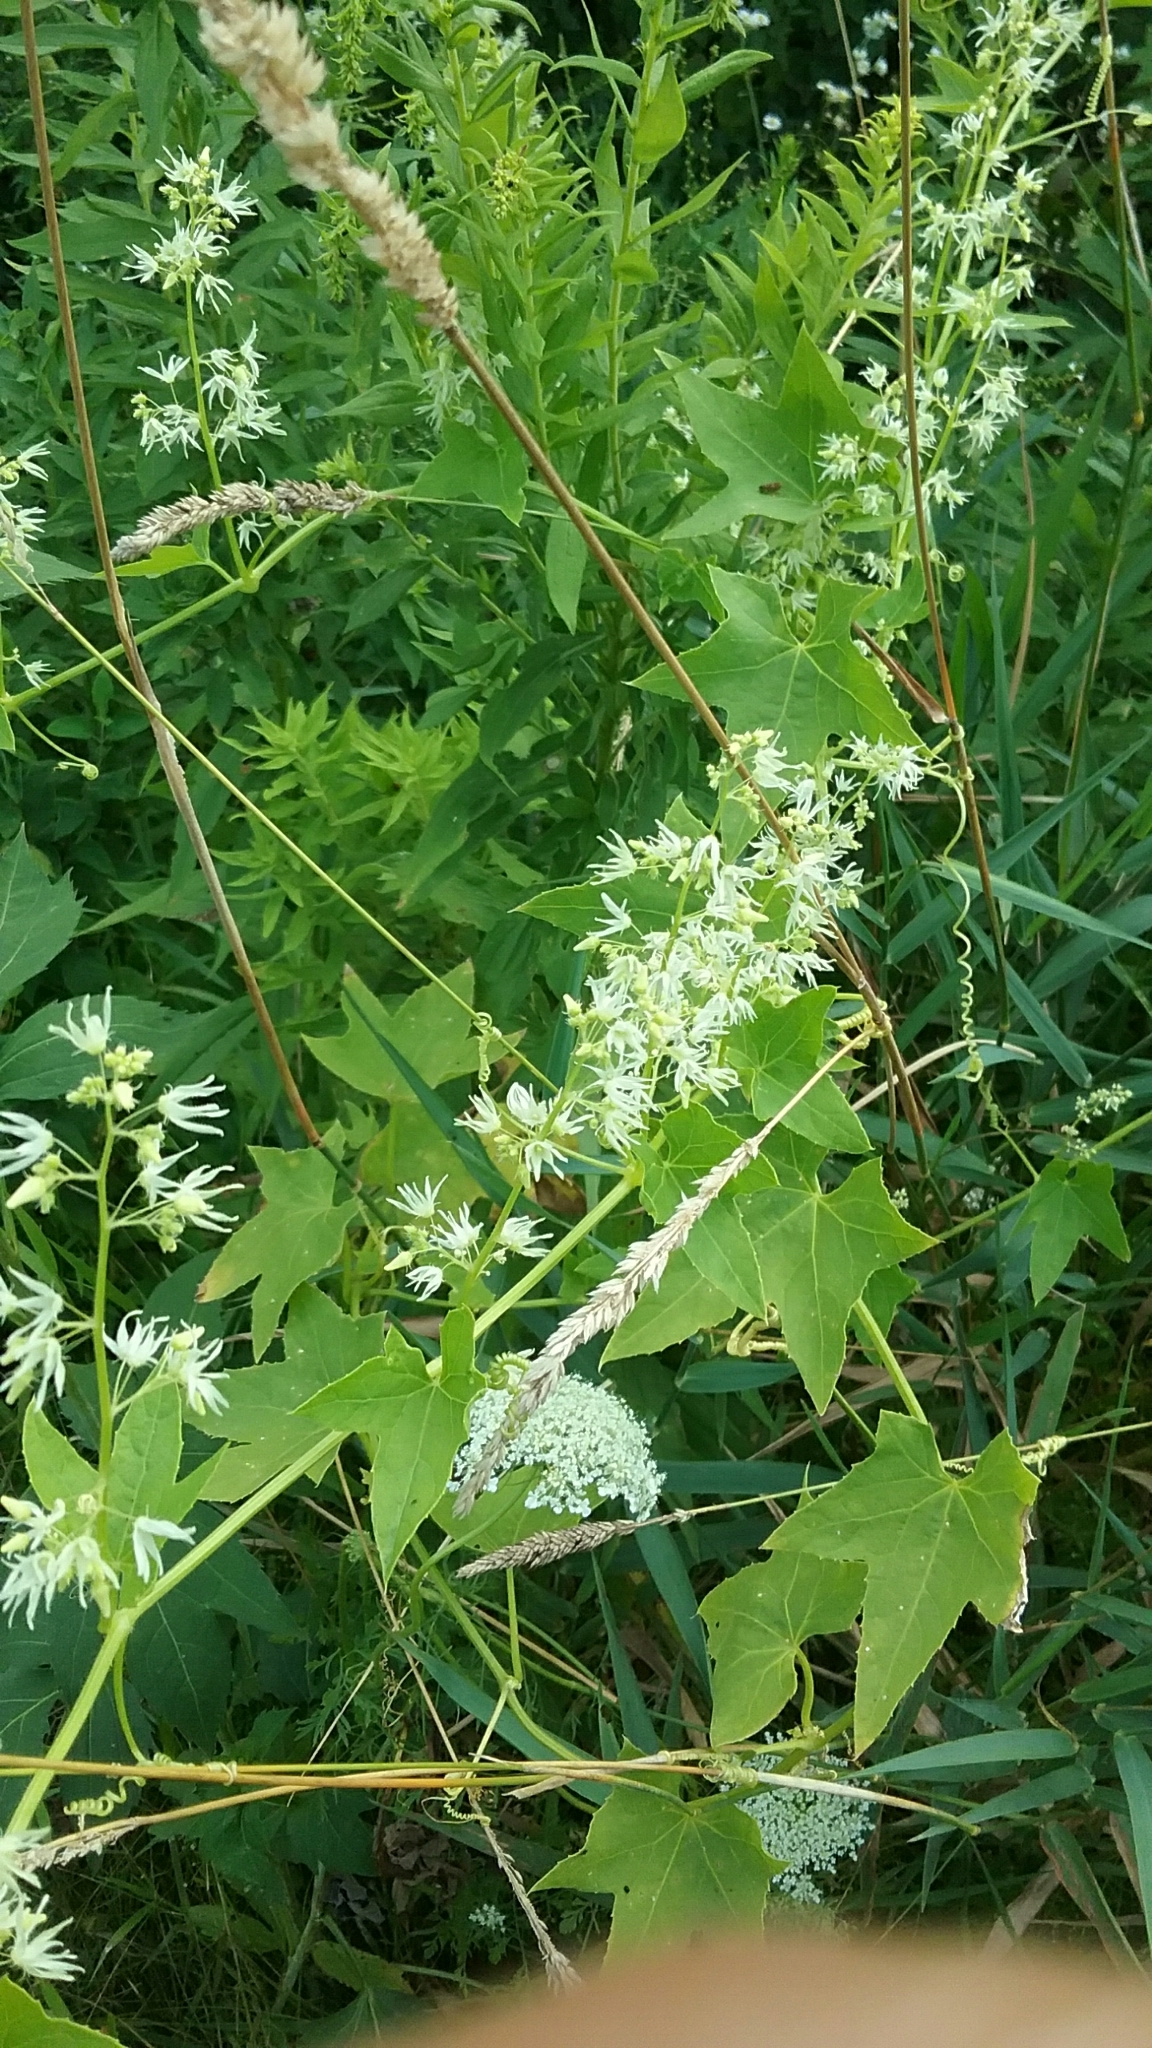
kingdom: Plantae
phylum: Tracheophyta
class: Magnoliopsida
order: Cucurbitales
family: Cucurbitaceae
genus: Echinocystis
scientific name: Echinocystis lobata
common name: Wild cucumber
